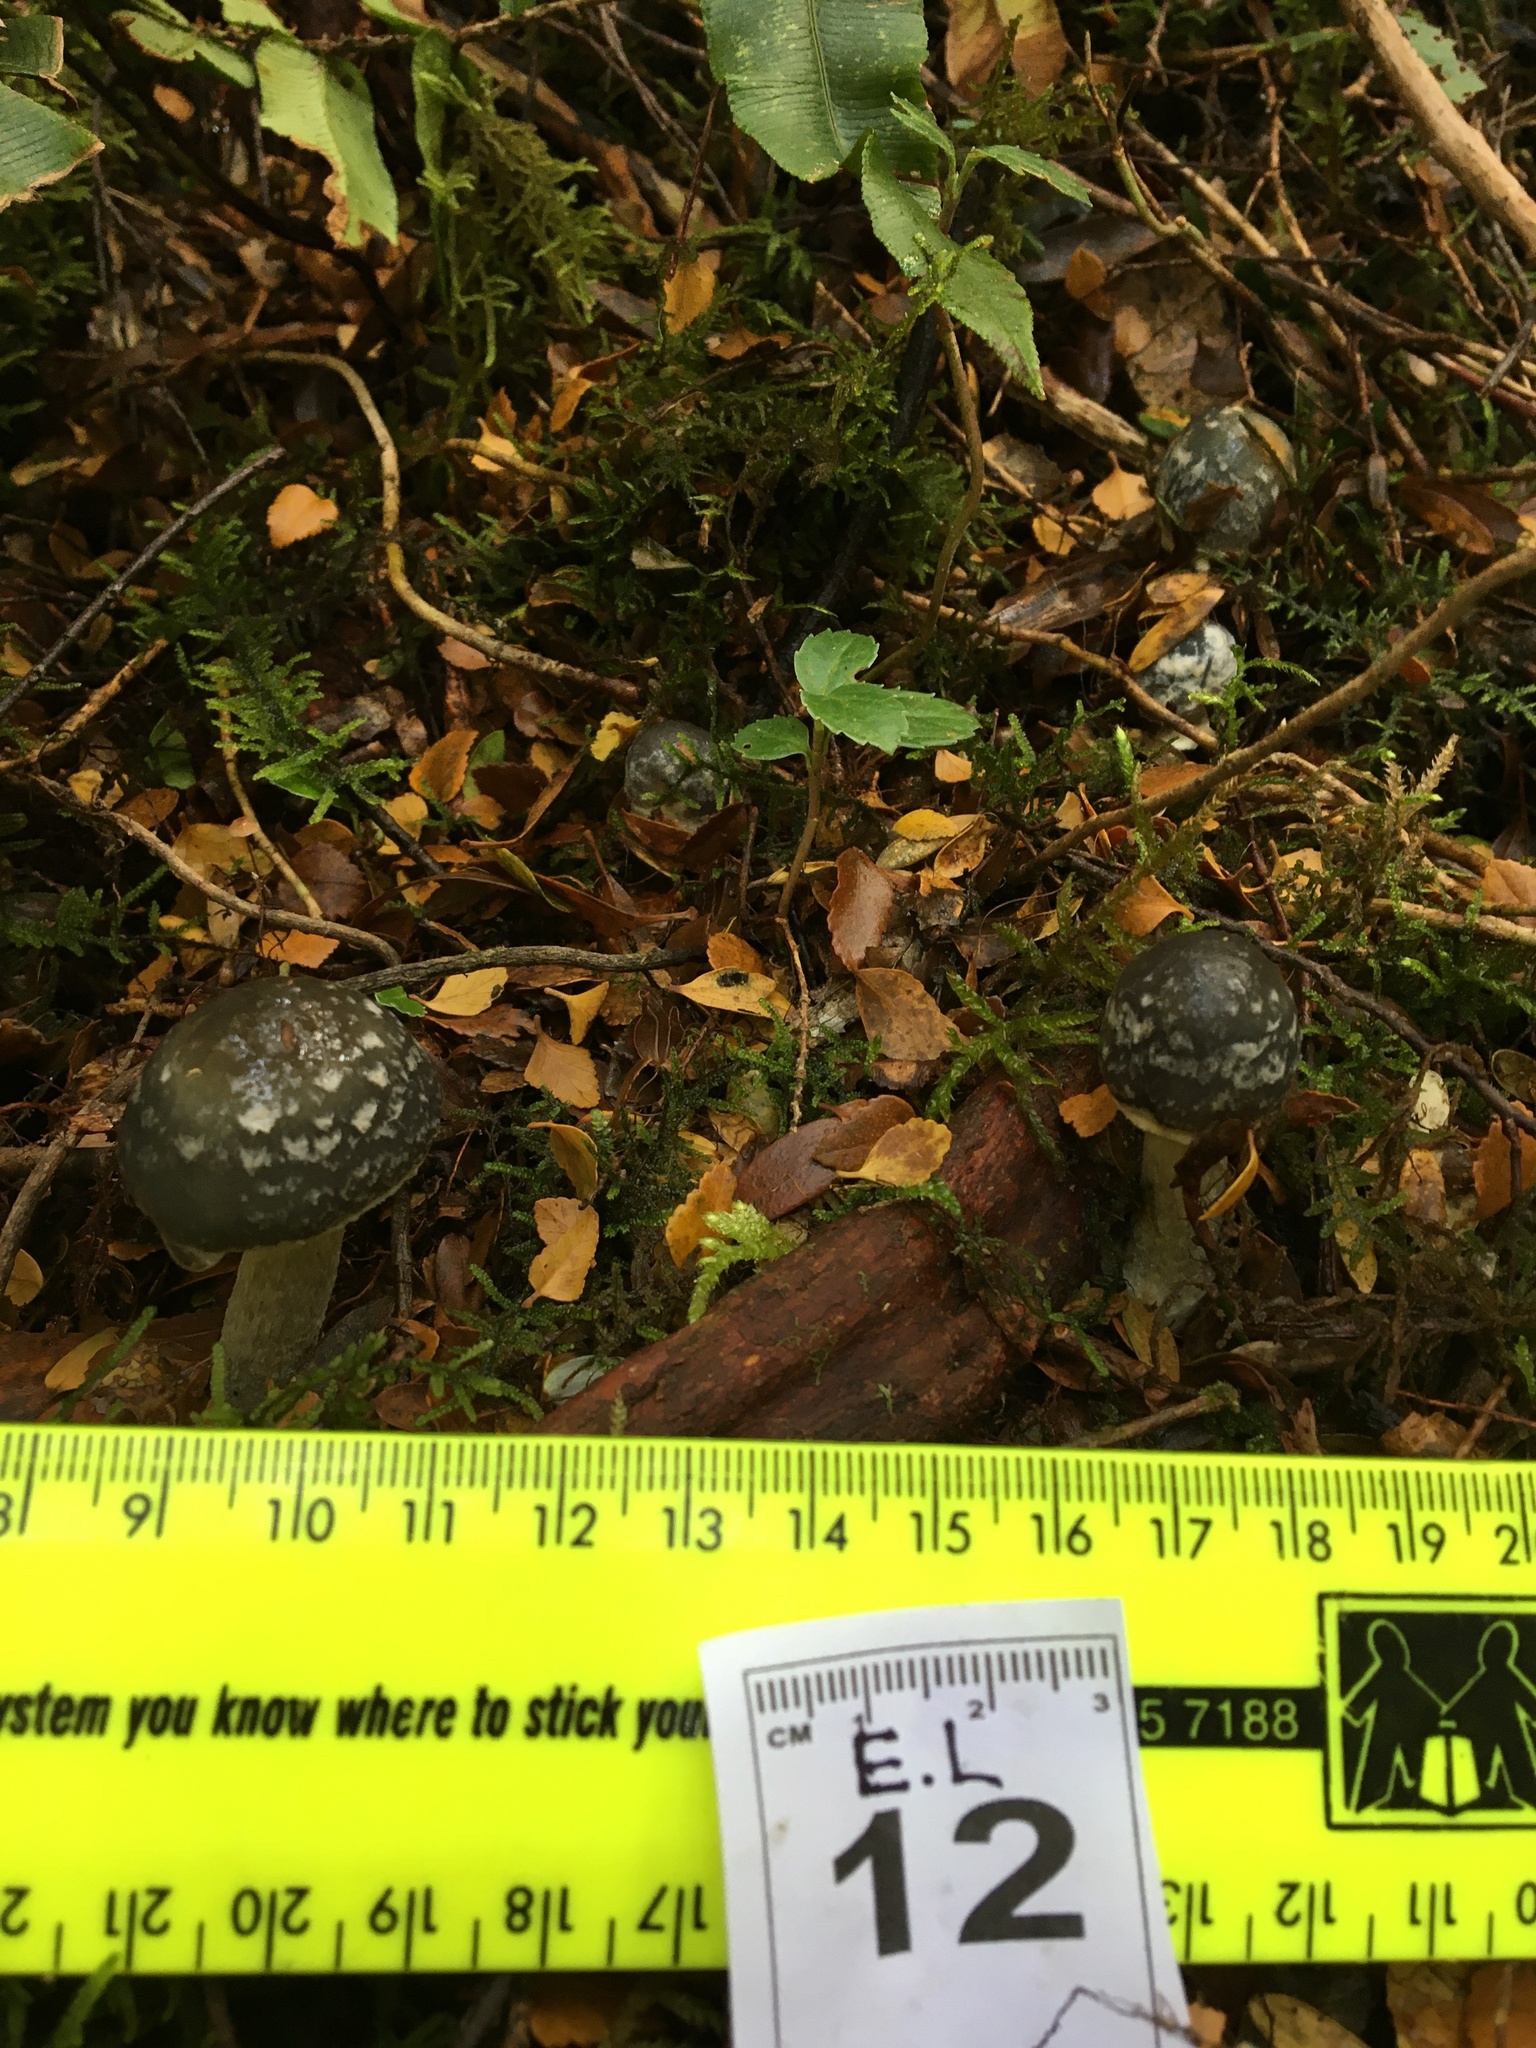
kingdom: Fungi
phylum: Basidiomycota
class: Agaricomycetes
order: Agaricales
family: Cortinariaceae
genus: Cortinarius
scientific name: Cortinarius metallicus
